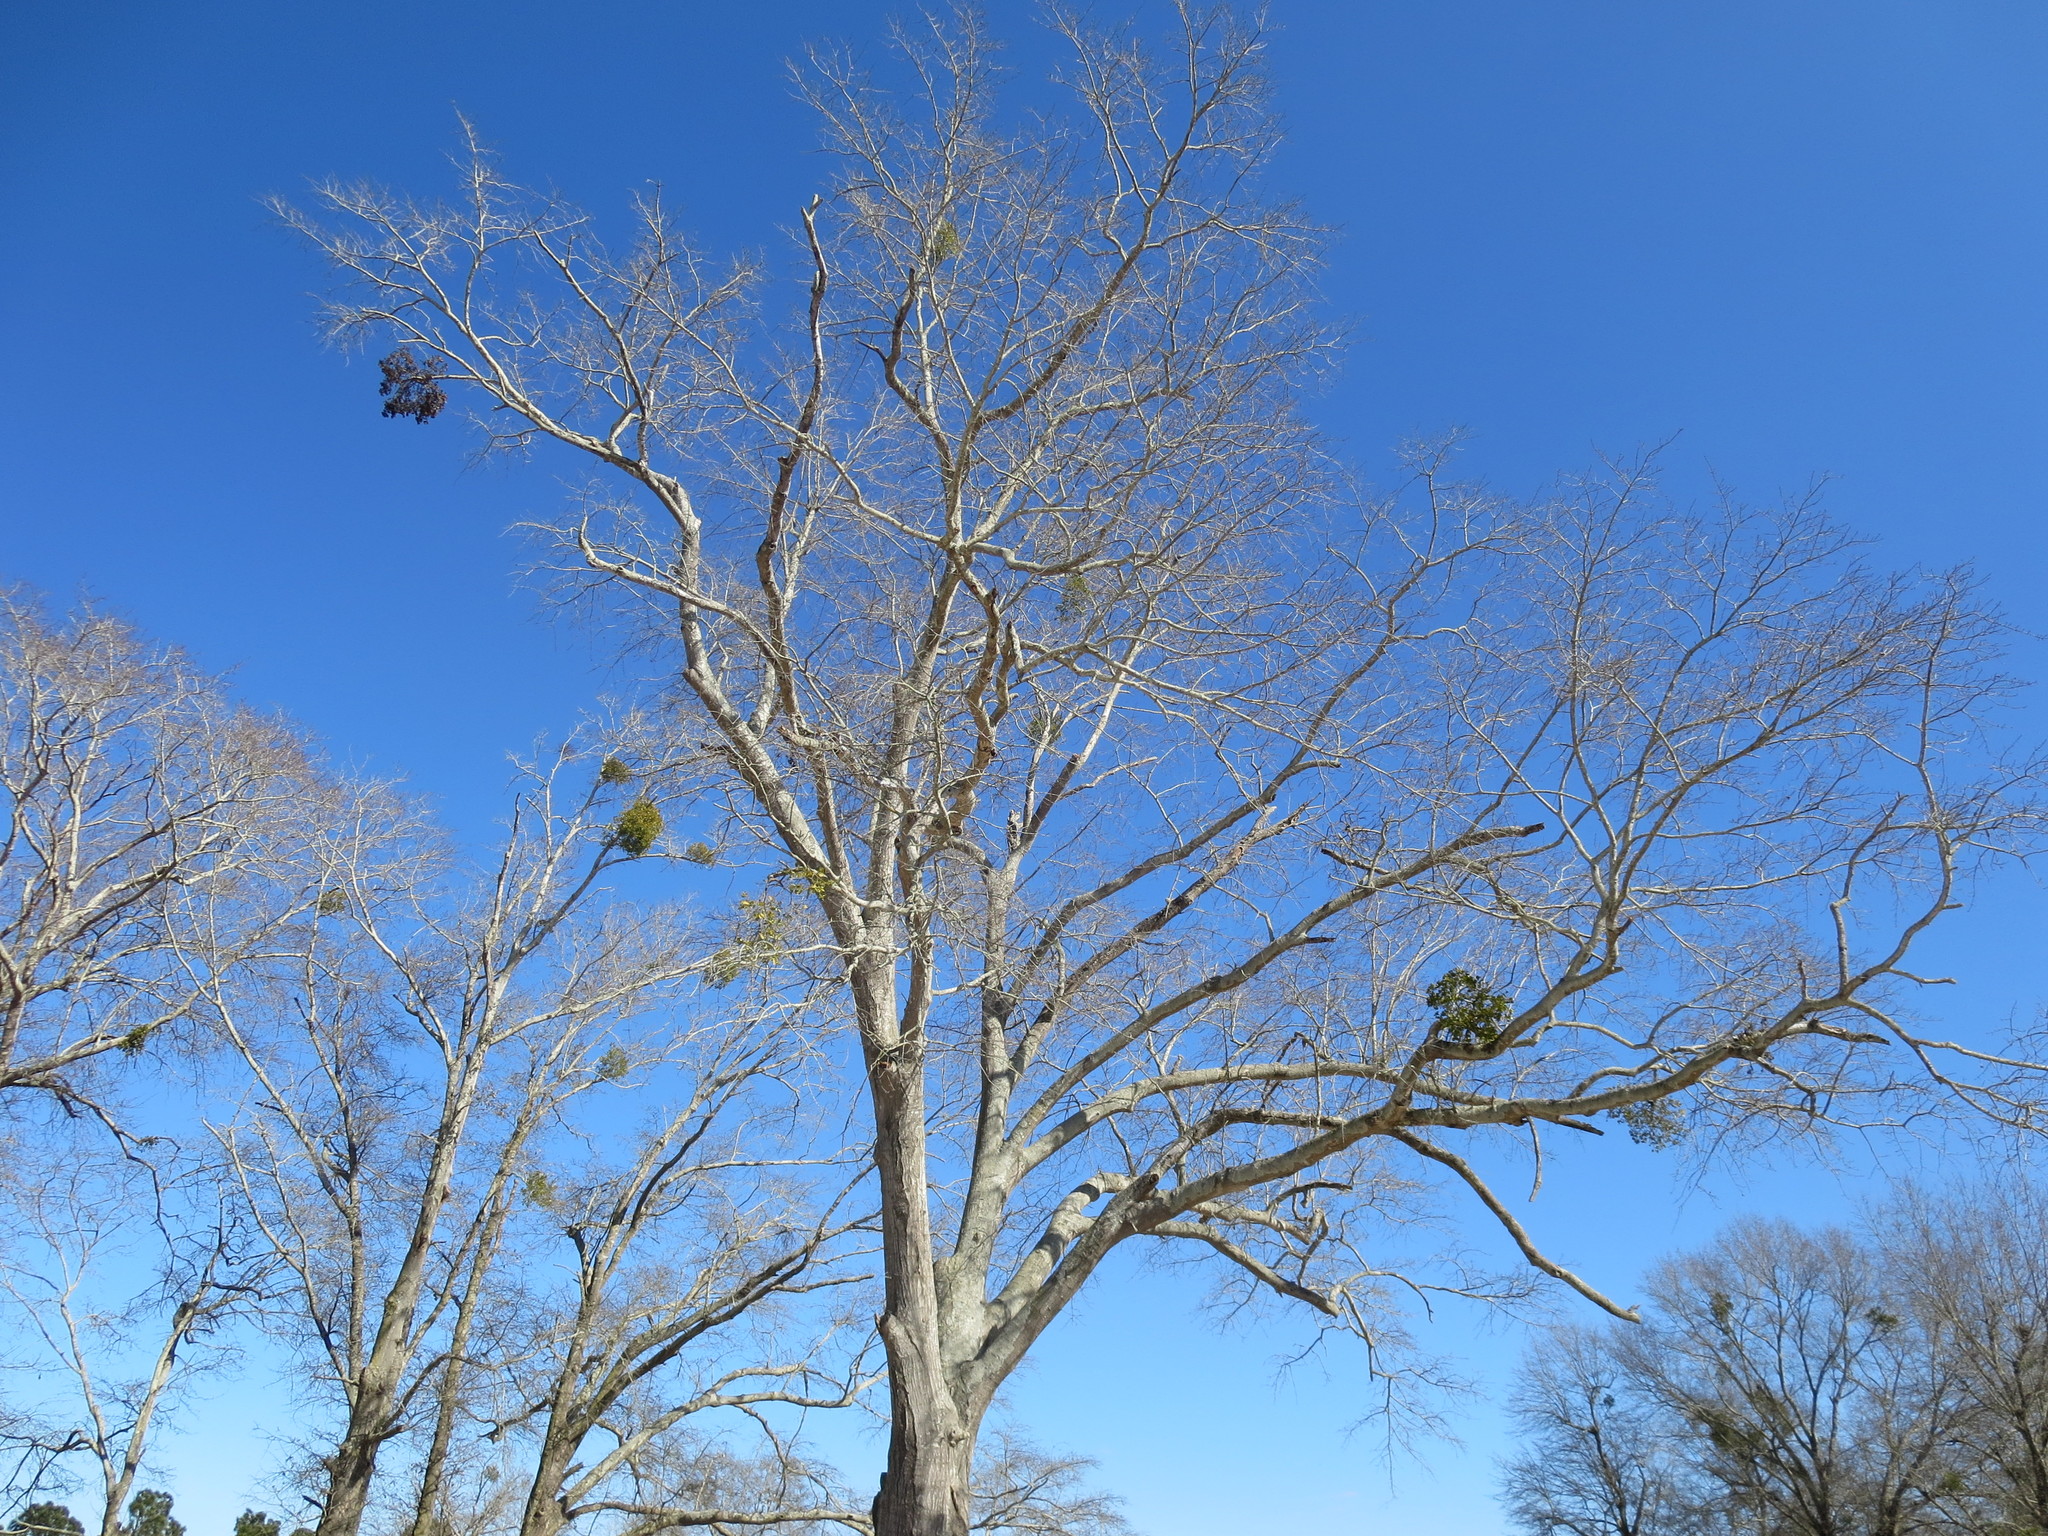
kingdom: Plantae
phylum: Tracheophyta
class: Magnoliopsida
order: Santalales
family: Viscaceae
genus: Phoradendron
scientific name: Phoradendron leucarpum
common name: Pacific mistletoe
